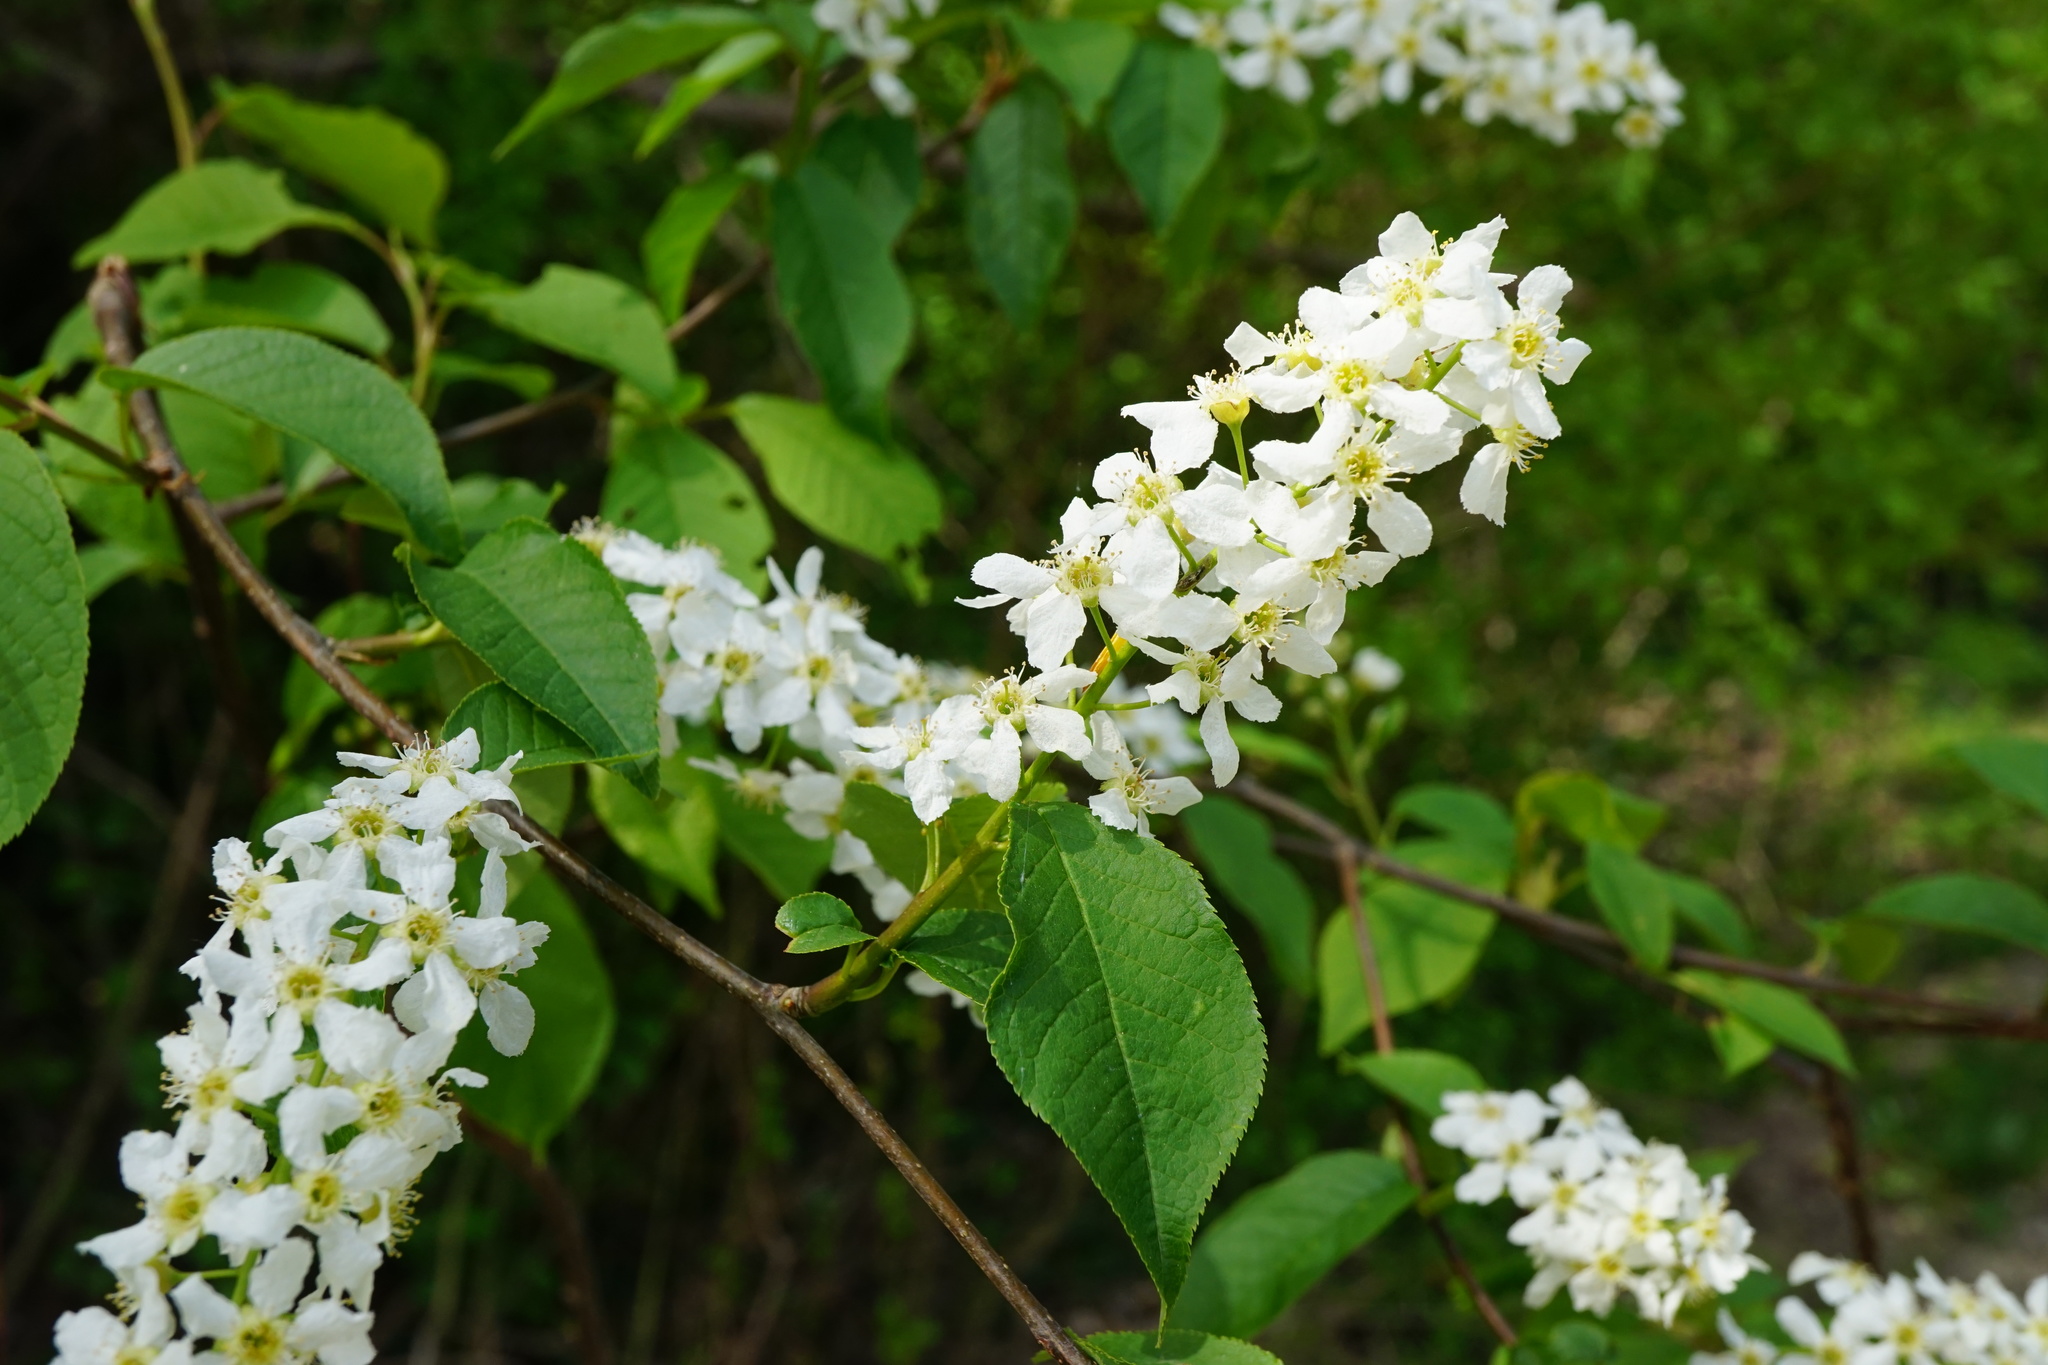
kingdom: Plantae
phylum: Tracheophyta
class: Magnoliopsida
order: Rosales
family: Rosaceae
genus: Prunus
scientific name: Prunus padus
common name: Bird cherry
